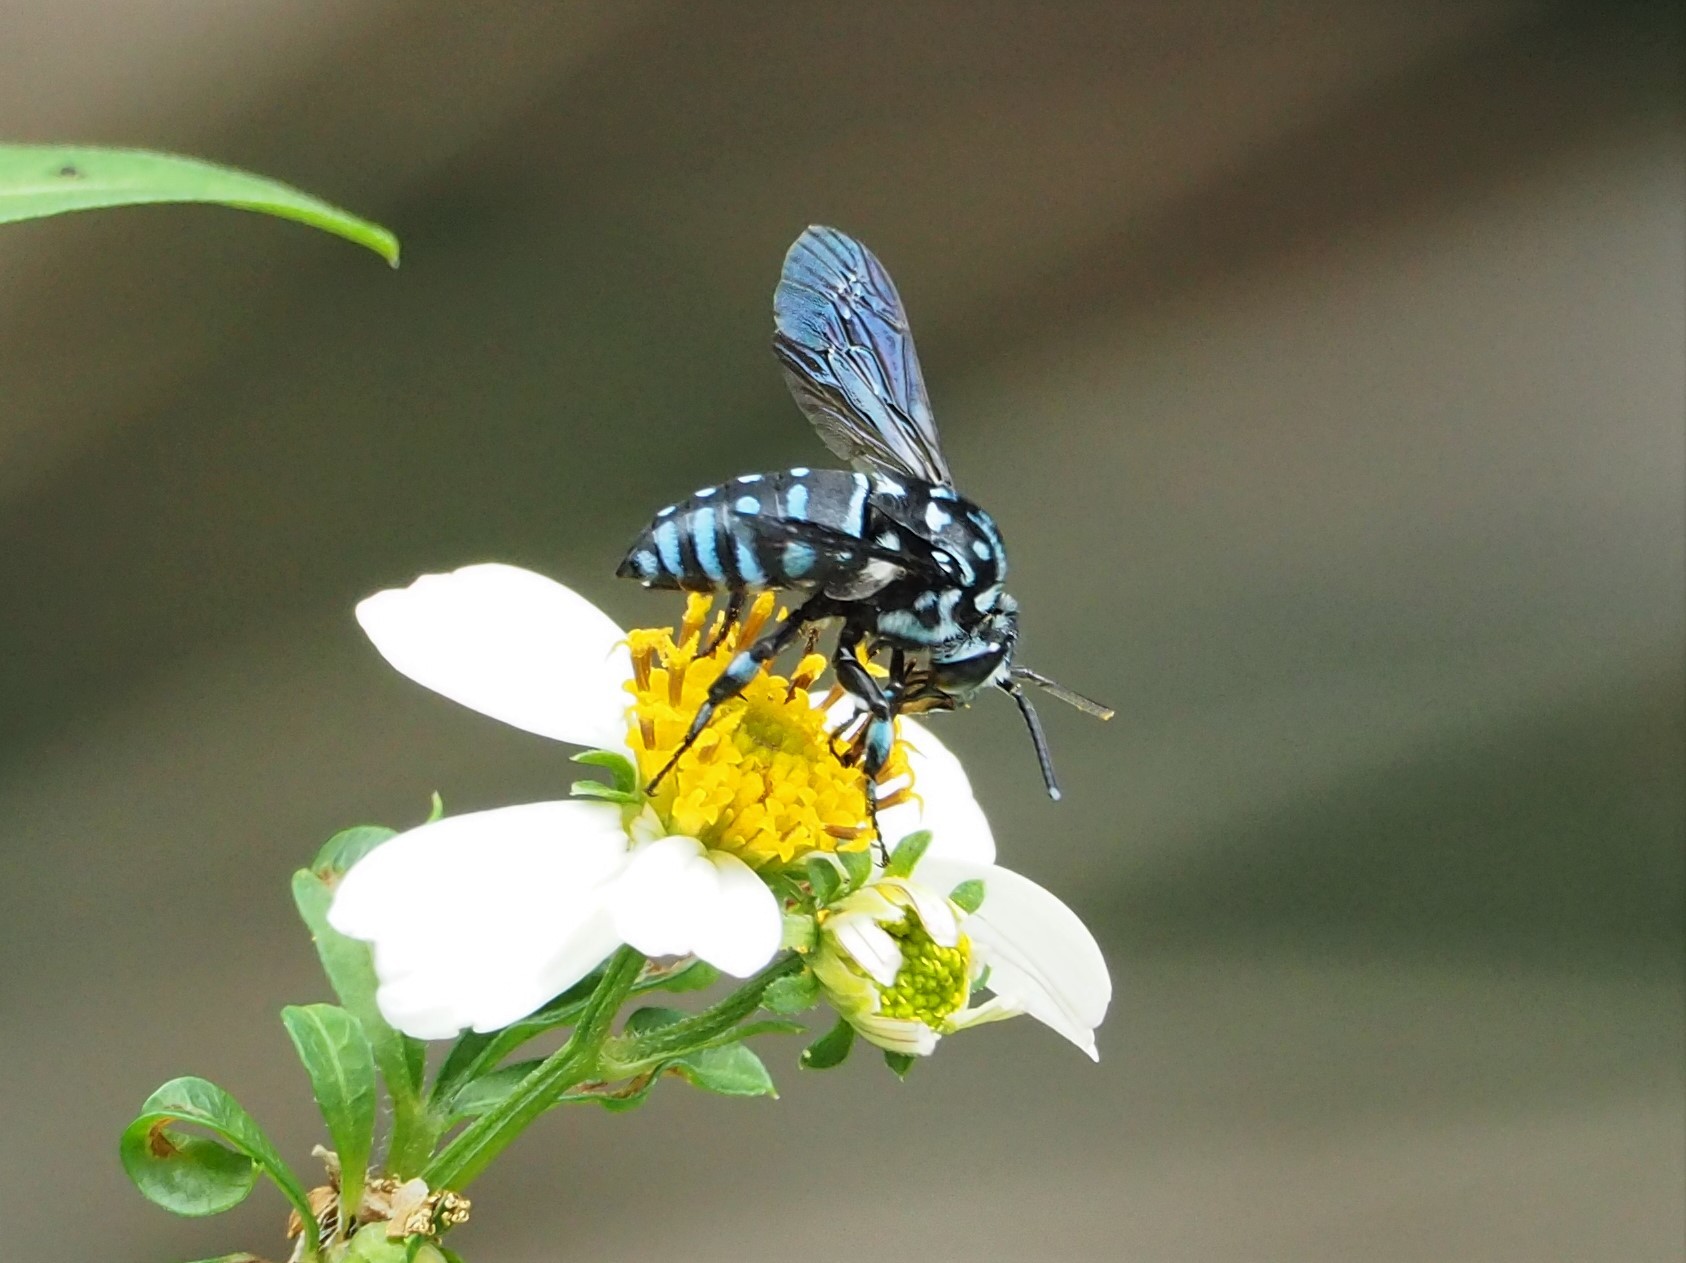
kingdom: Animalia
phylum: Arthropoda
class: Insecta
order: Hymenoptera
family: Apidae
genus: Thyreus
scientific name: Thyreus decorus
